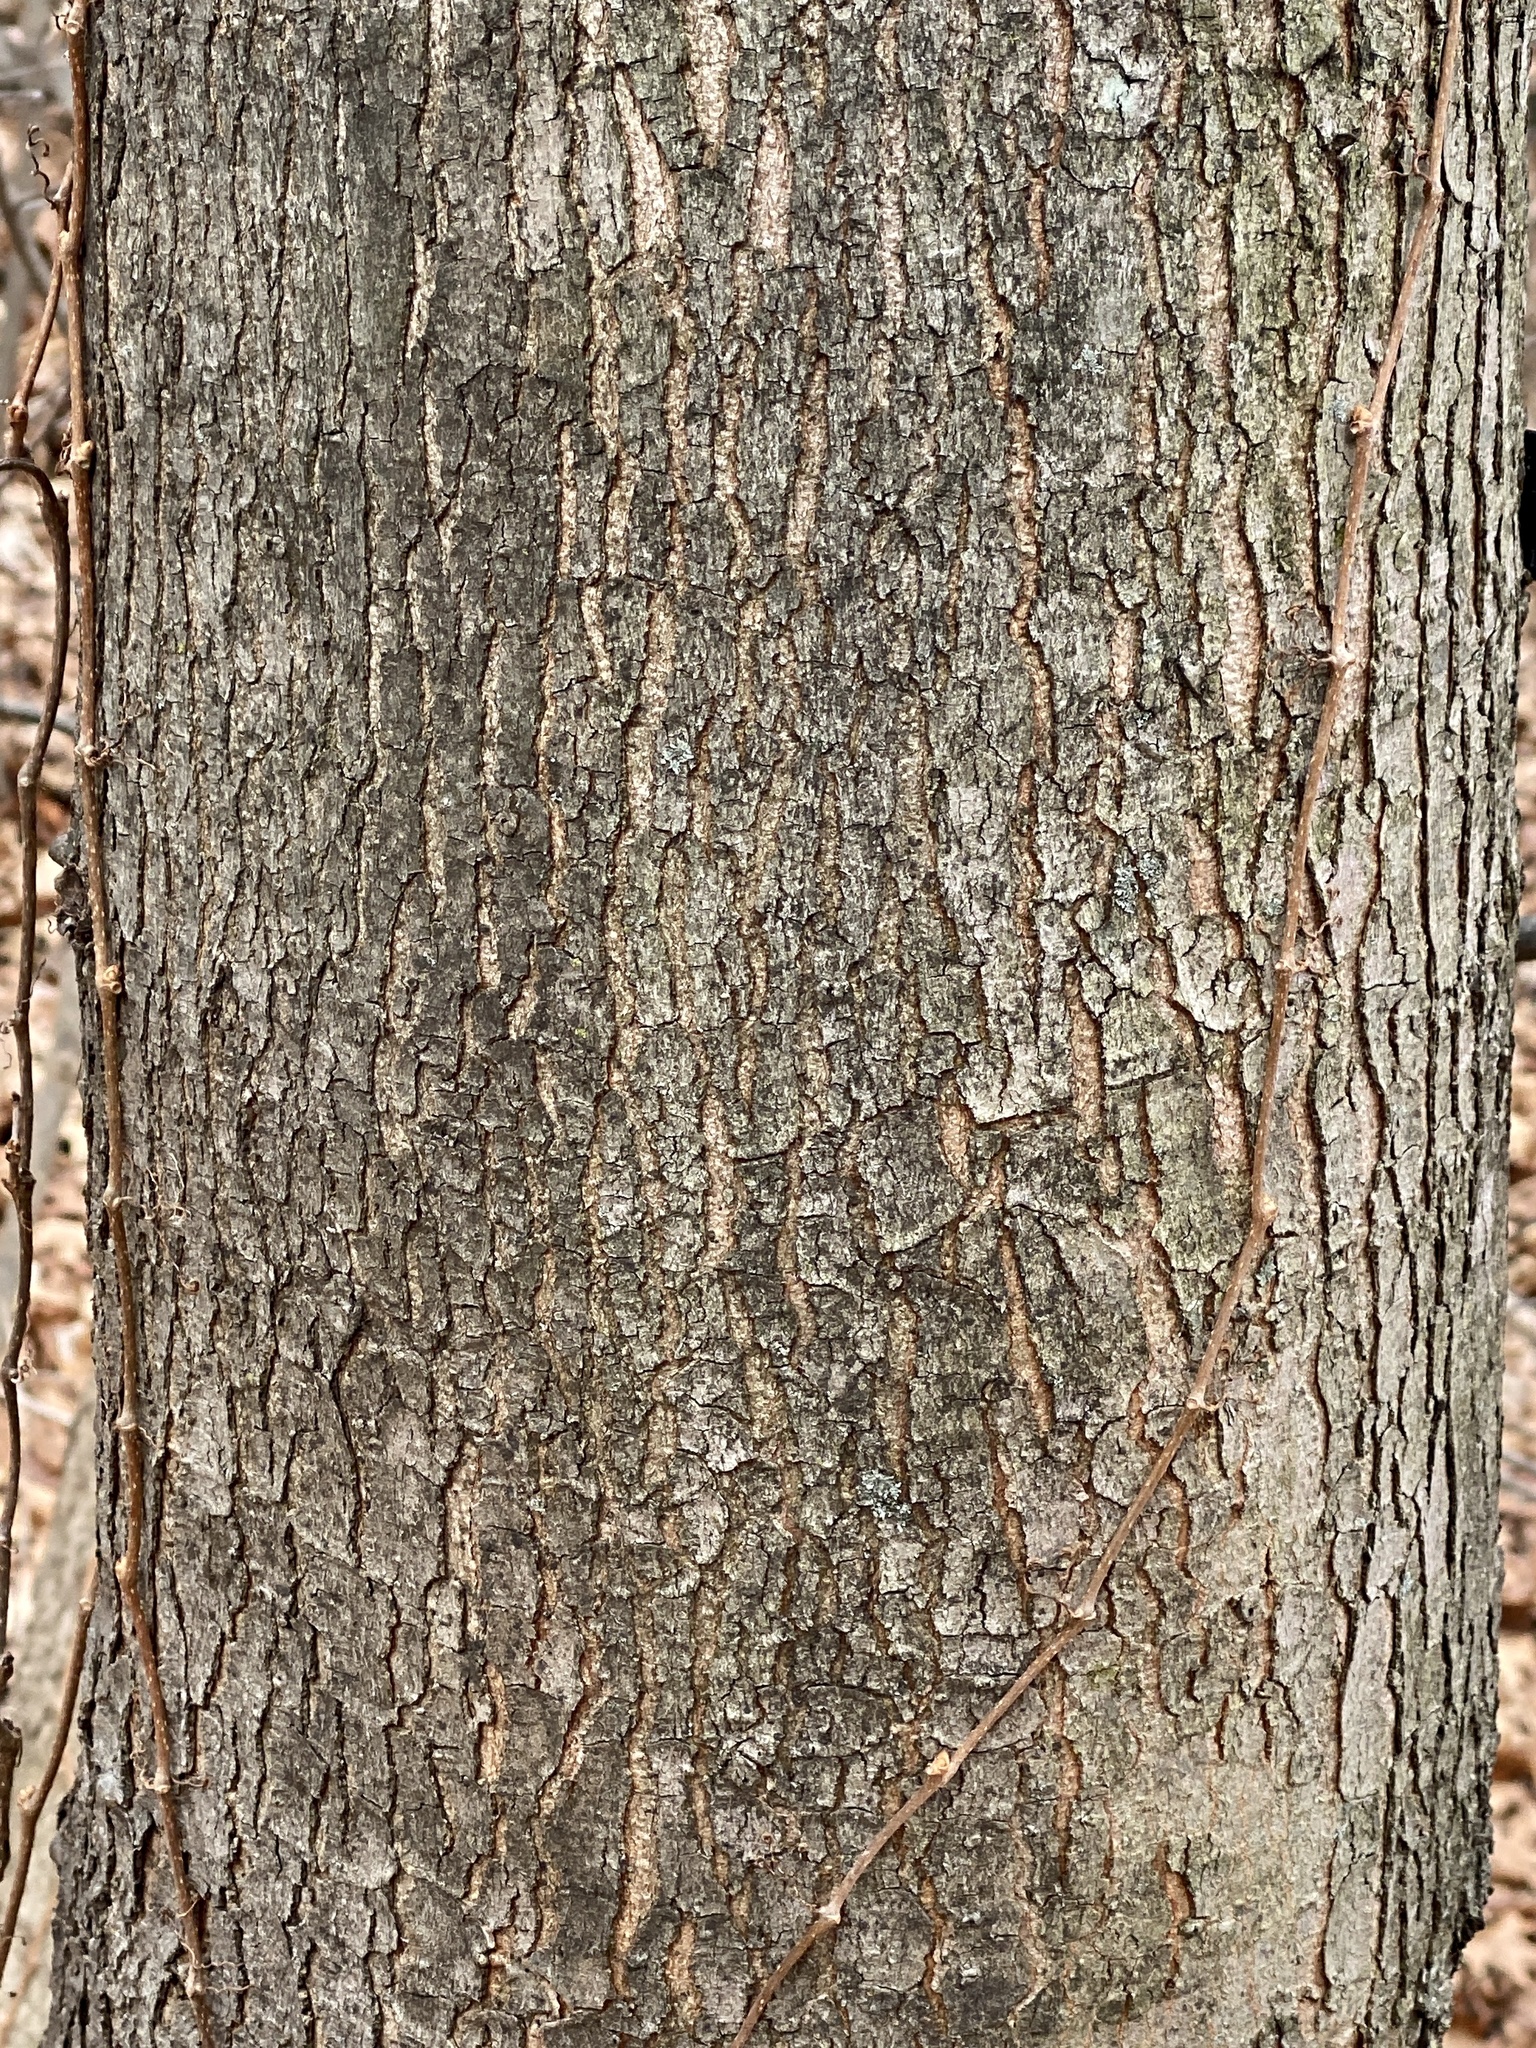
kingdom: Plantae
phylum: Tracheophyta
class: Magnoliopsida
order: Sapindales
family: Sapindaceae
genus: Acer
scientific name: Acer rubrum
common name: Red maple
